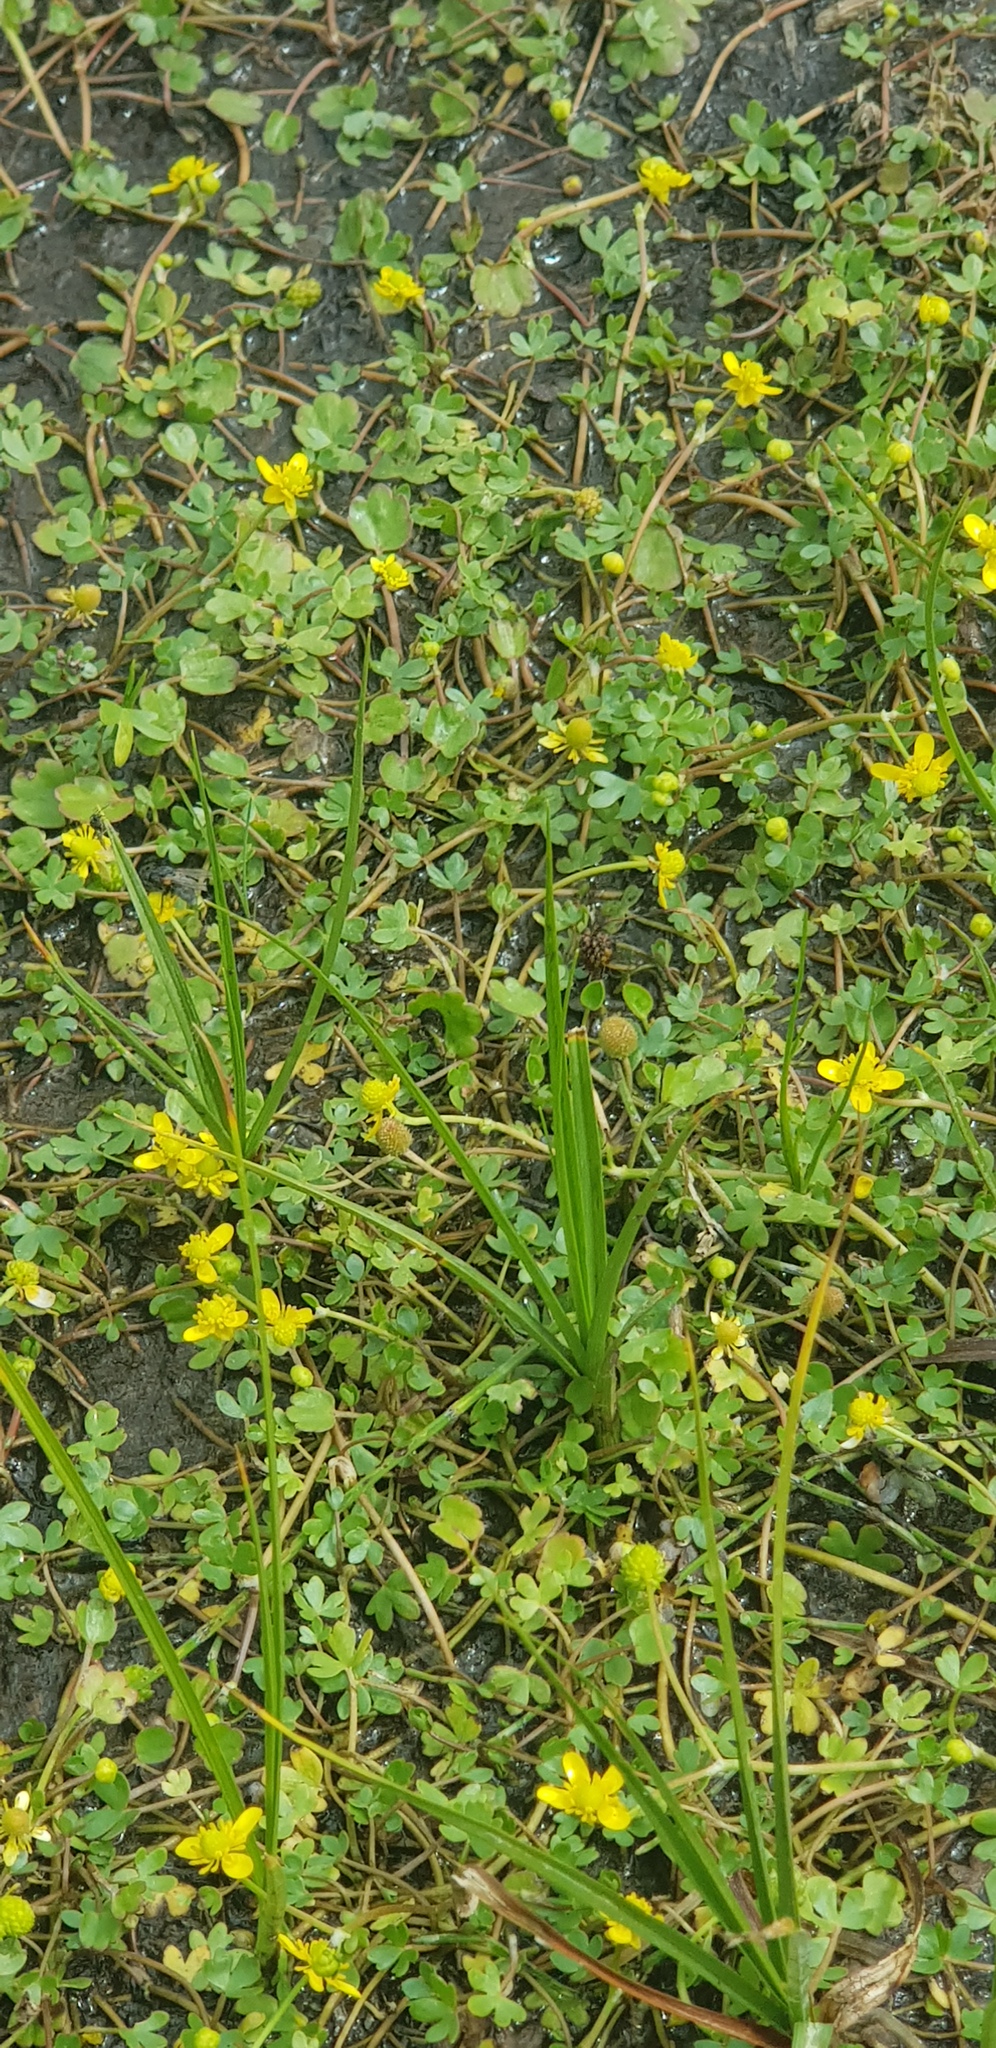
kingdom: Plantae
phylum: Tracheophyta
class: Magnoliopsida
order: Ranunculales
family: Ranunculaceae
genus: Halerpestes
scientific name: Halerpestes sarmentosus
